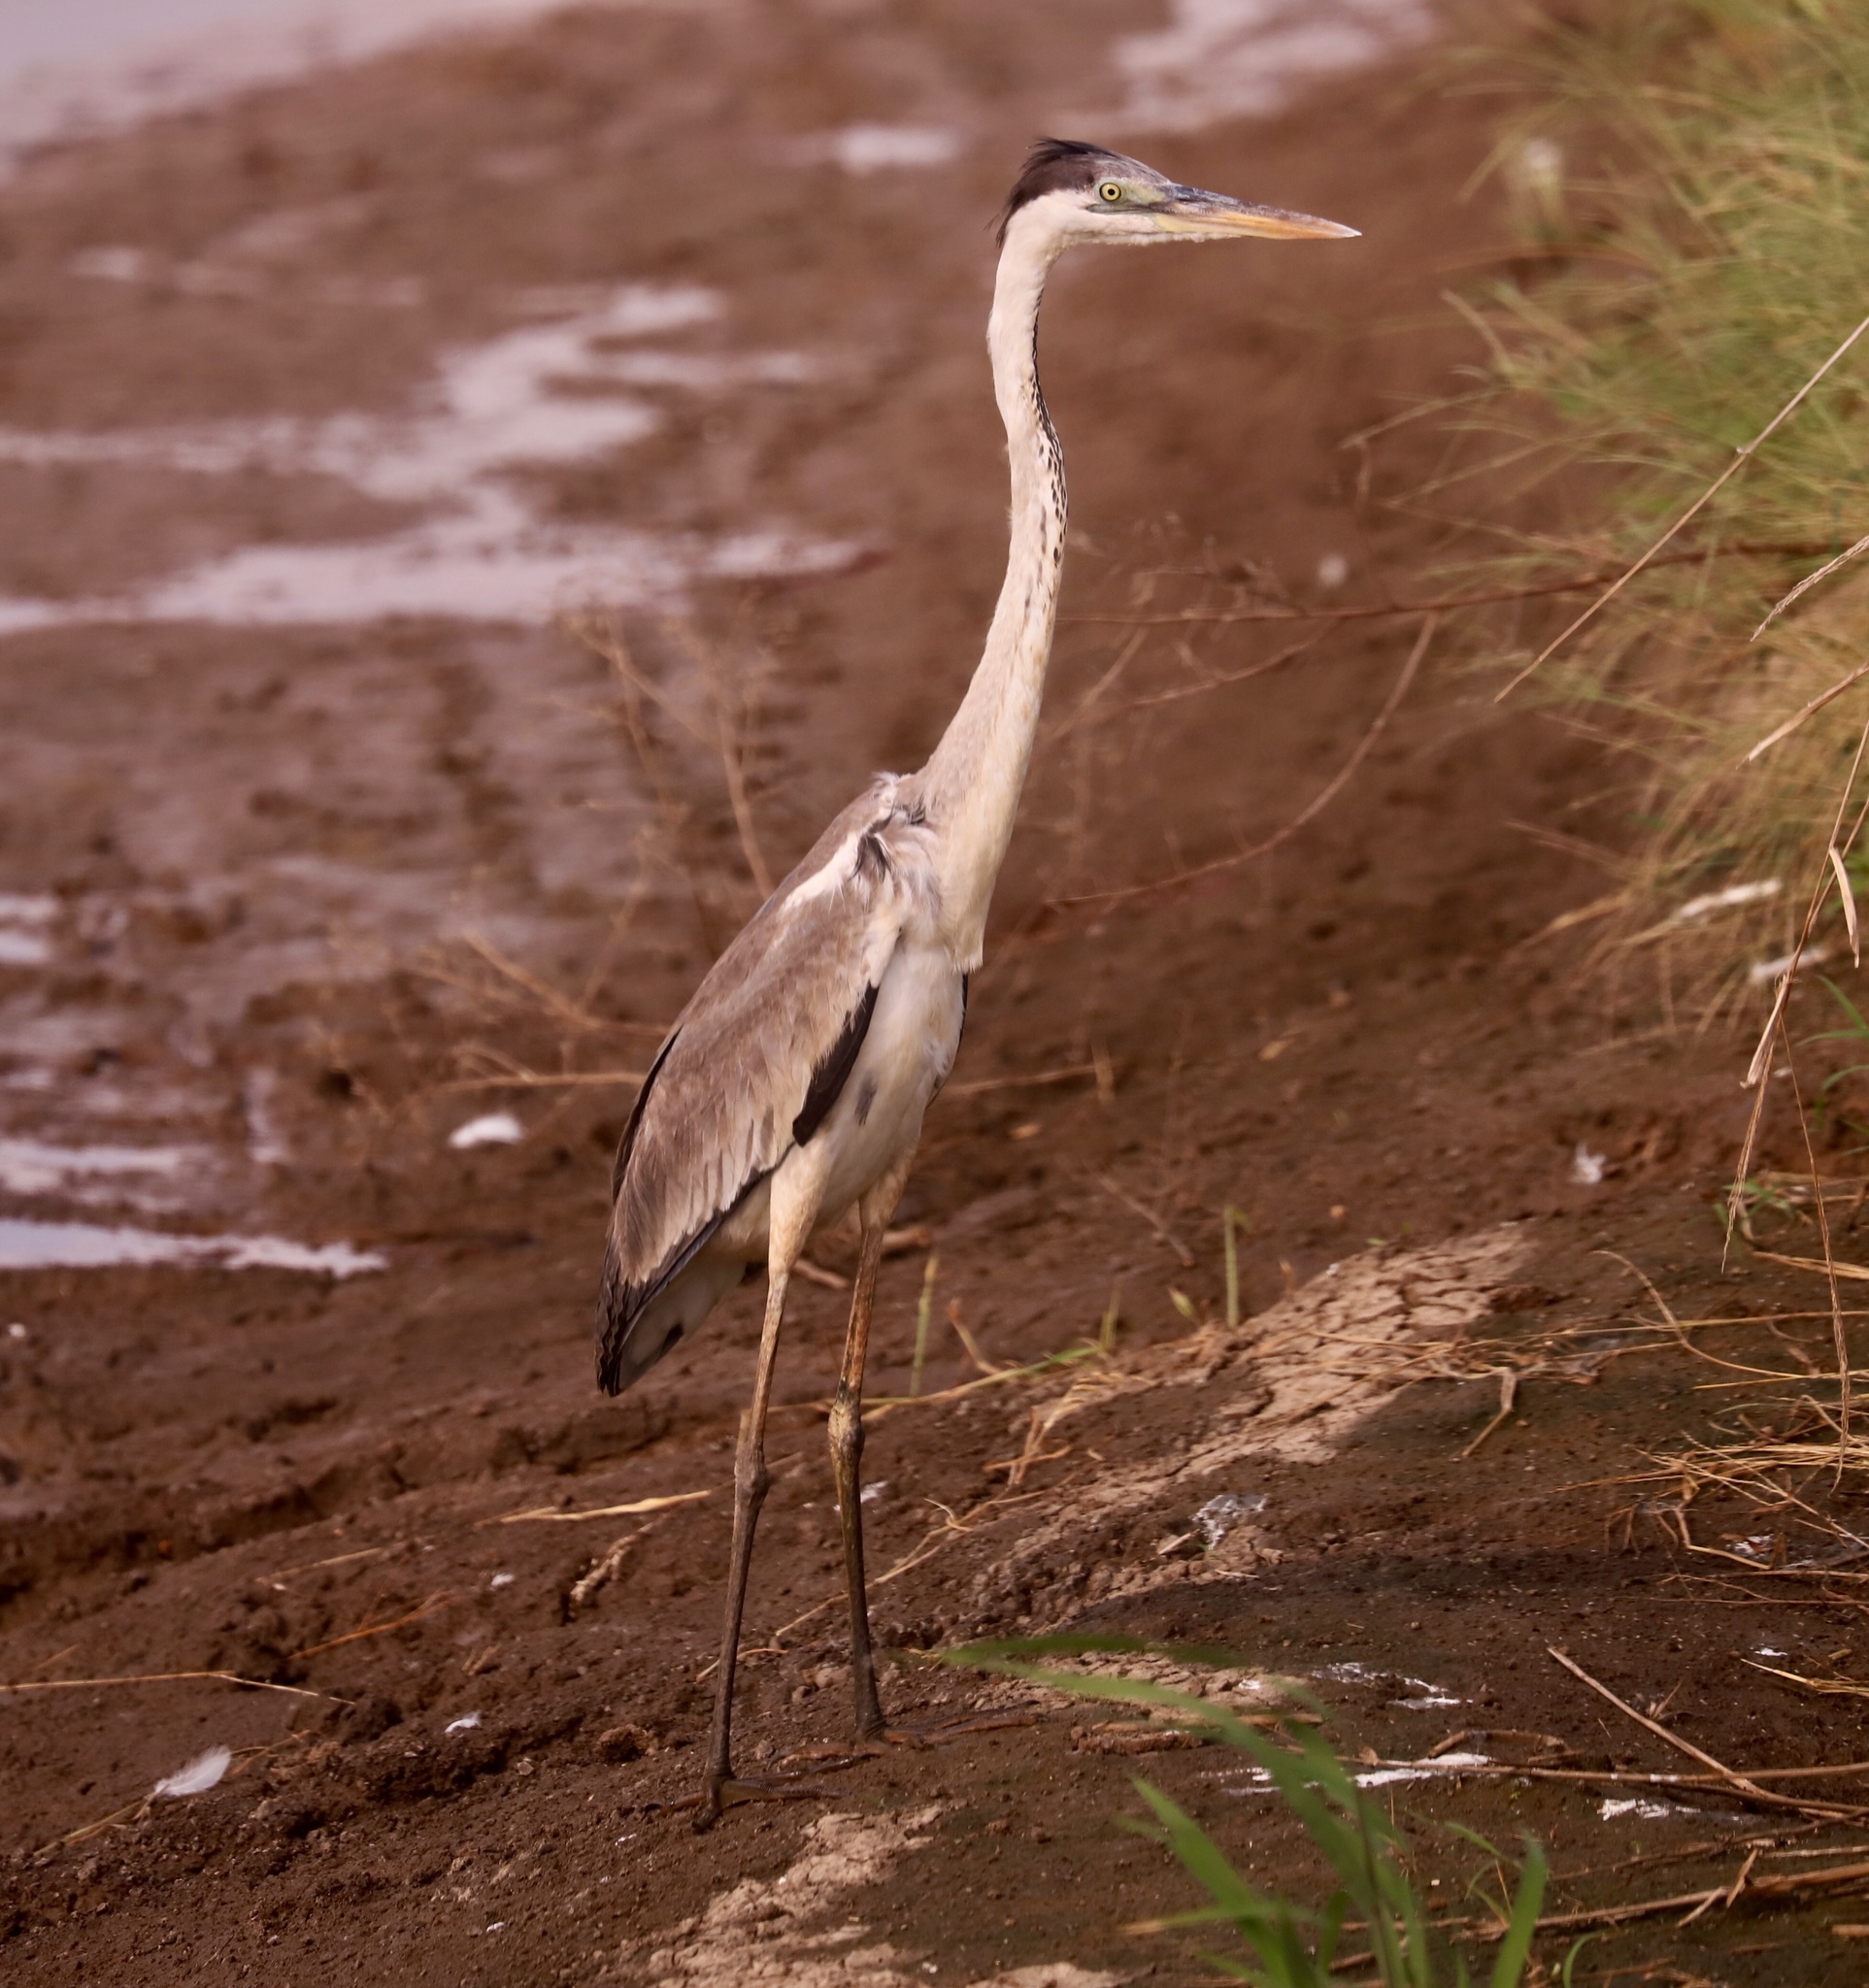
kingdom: Animalia
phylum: Chordata
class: Aves
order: Pelecaniformes
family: Ardeidae
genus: Ardea
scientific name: Ardea cocoi
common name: Cocoi heron
